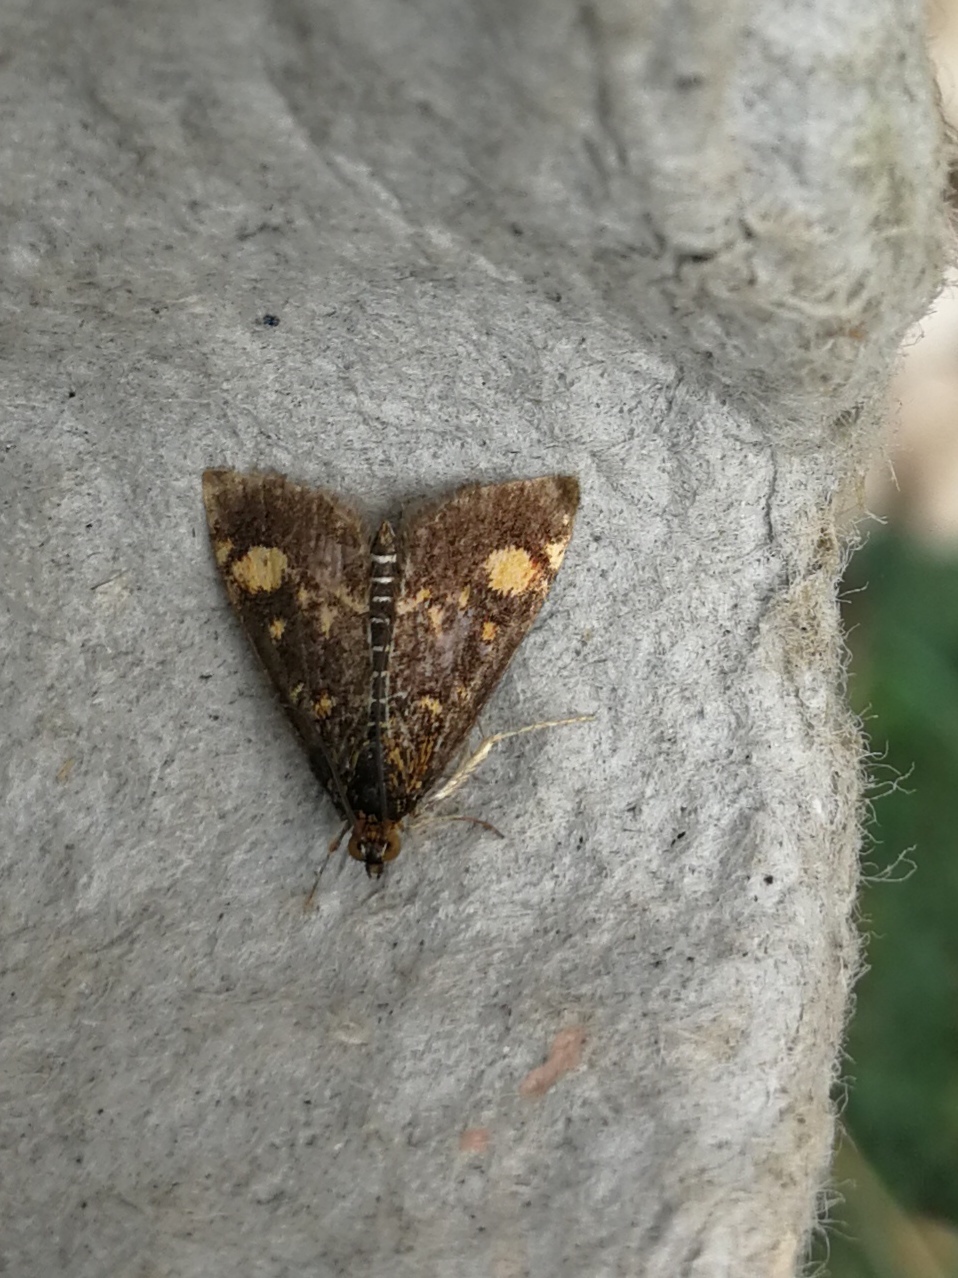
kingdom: Animalia
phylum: Arthropoda
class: Insecta
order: Lepidoptera
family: Crambidae
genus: Pyrausta
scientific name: Pyrausta aurata
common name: Small purple & gold
